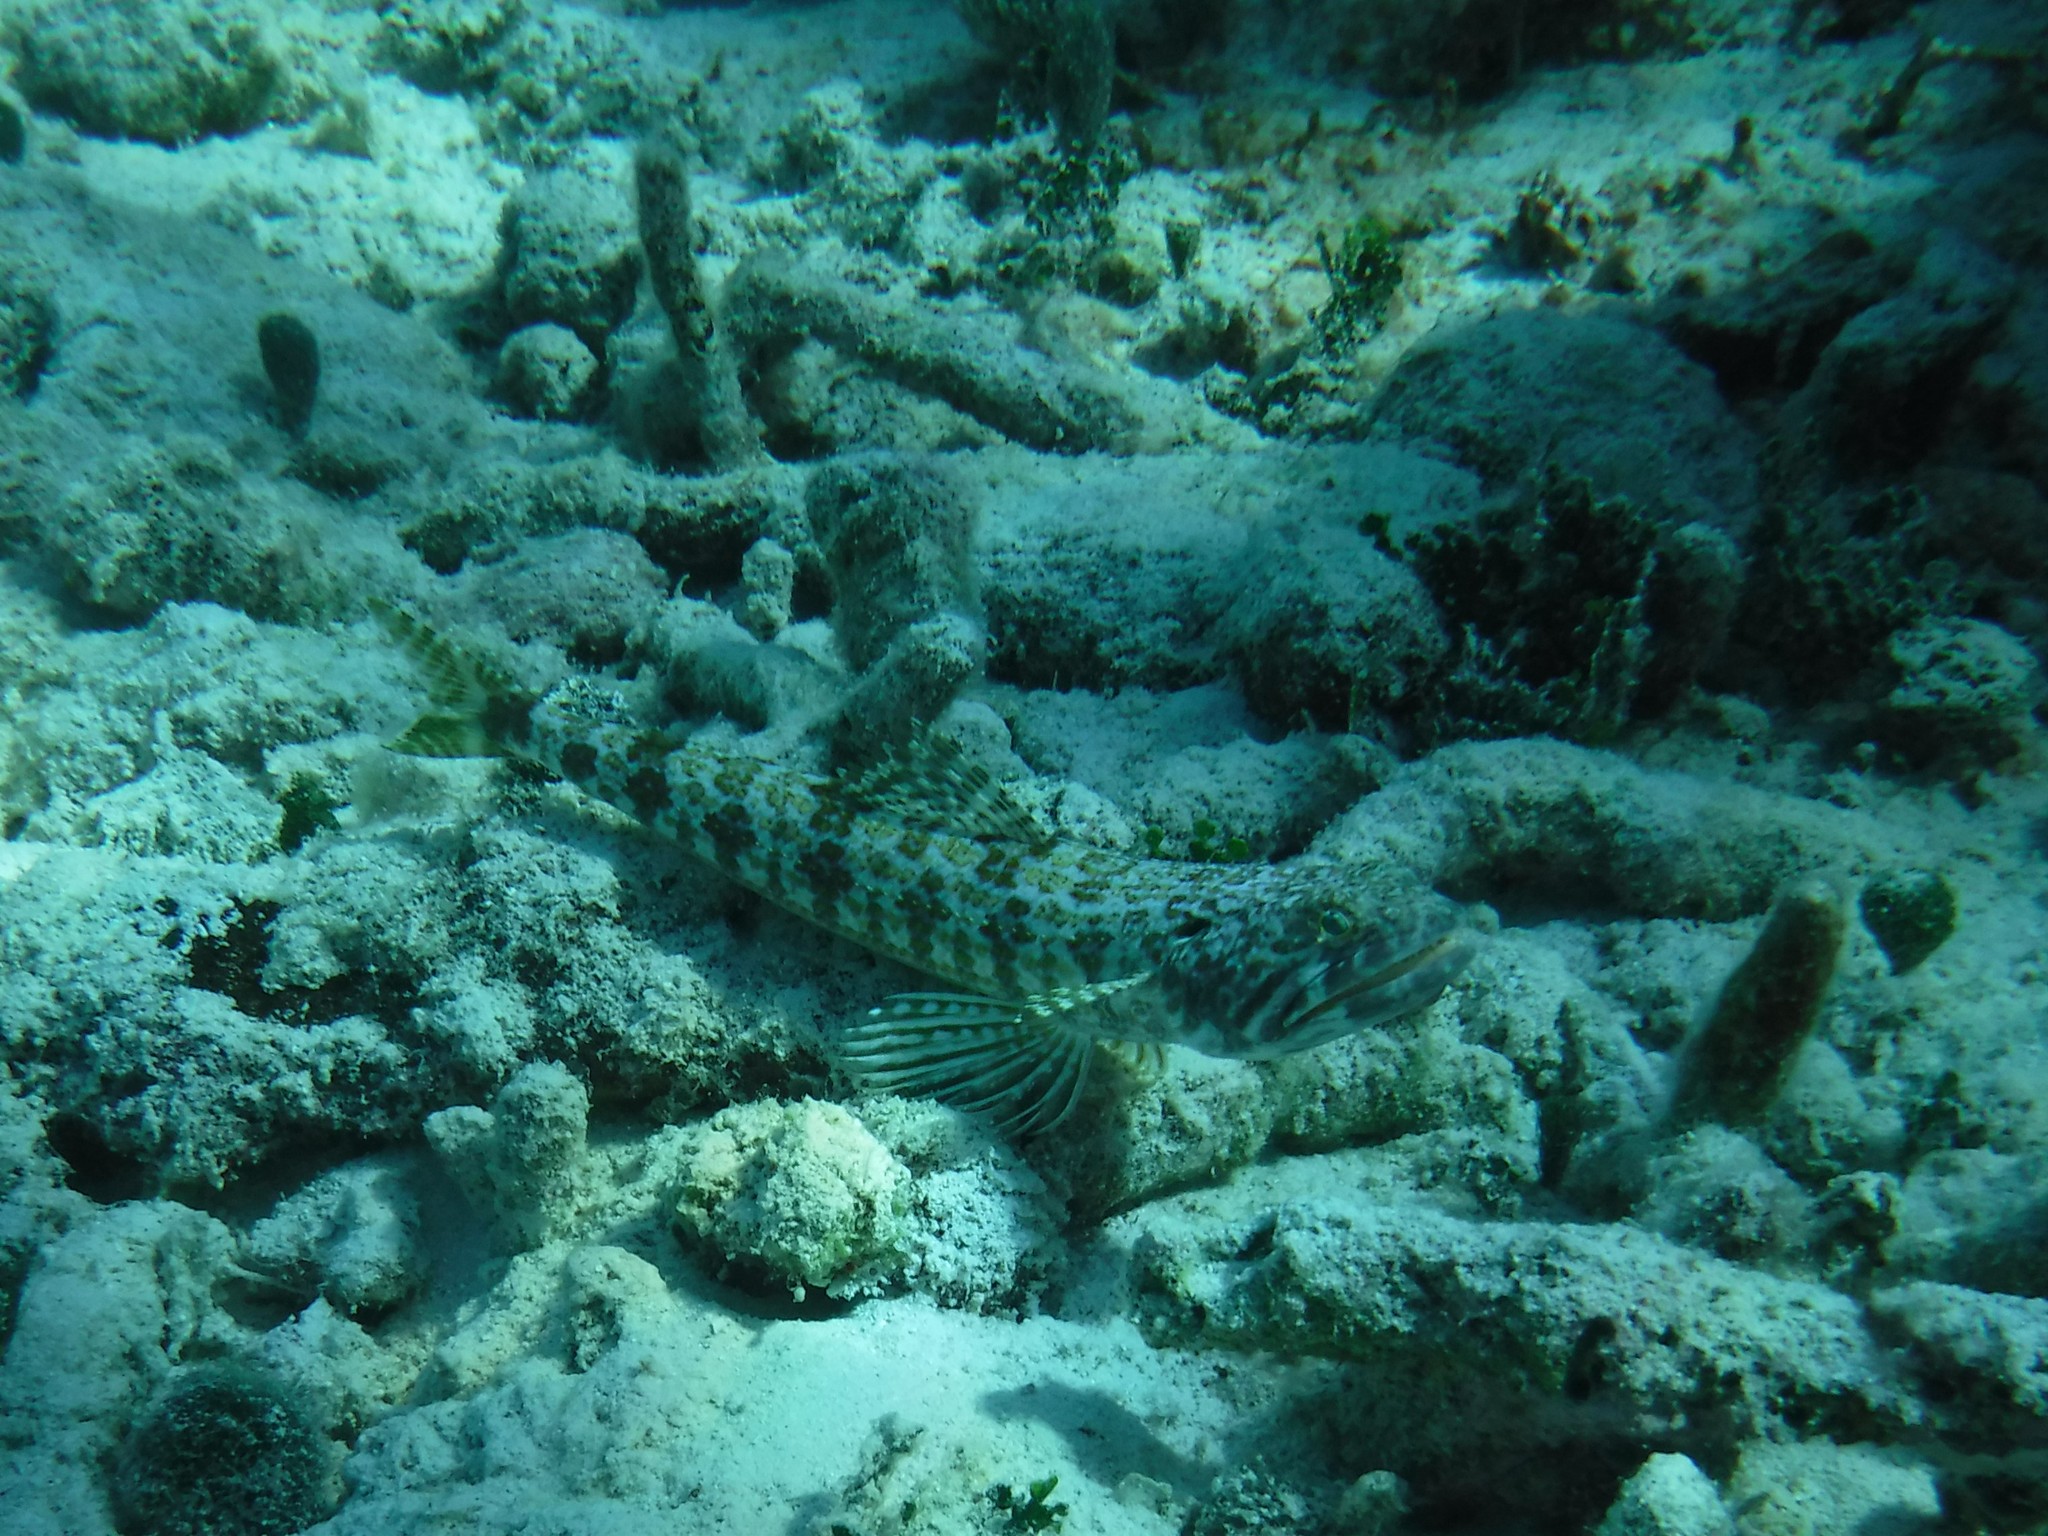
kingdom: Animalia
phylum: Chordata
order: Aulopiformes
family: Synodontidae
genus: Synodus
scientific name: Synodus intermedius
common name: Sand diver
